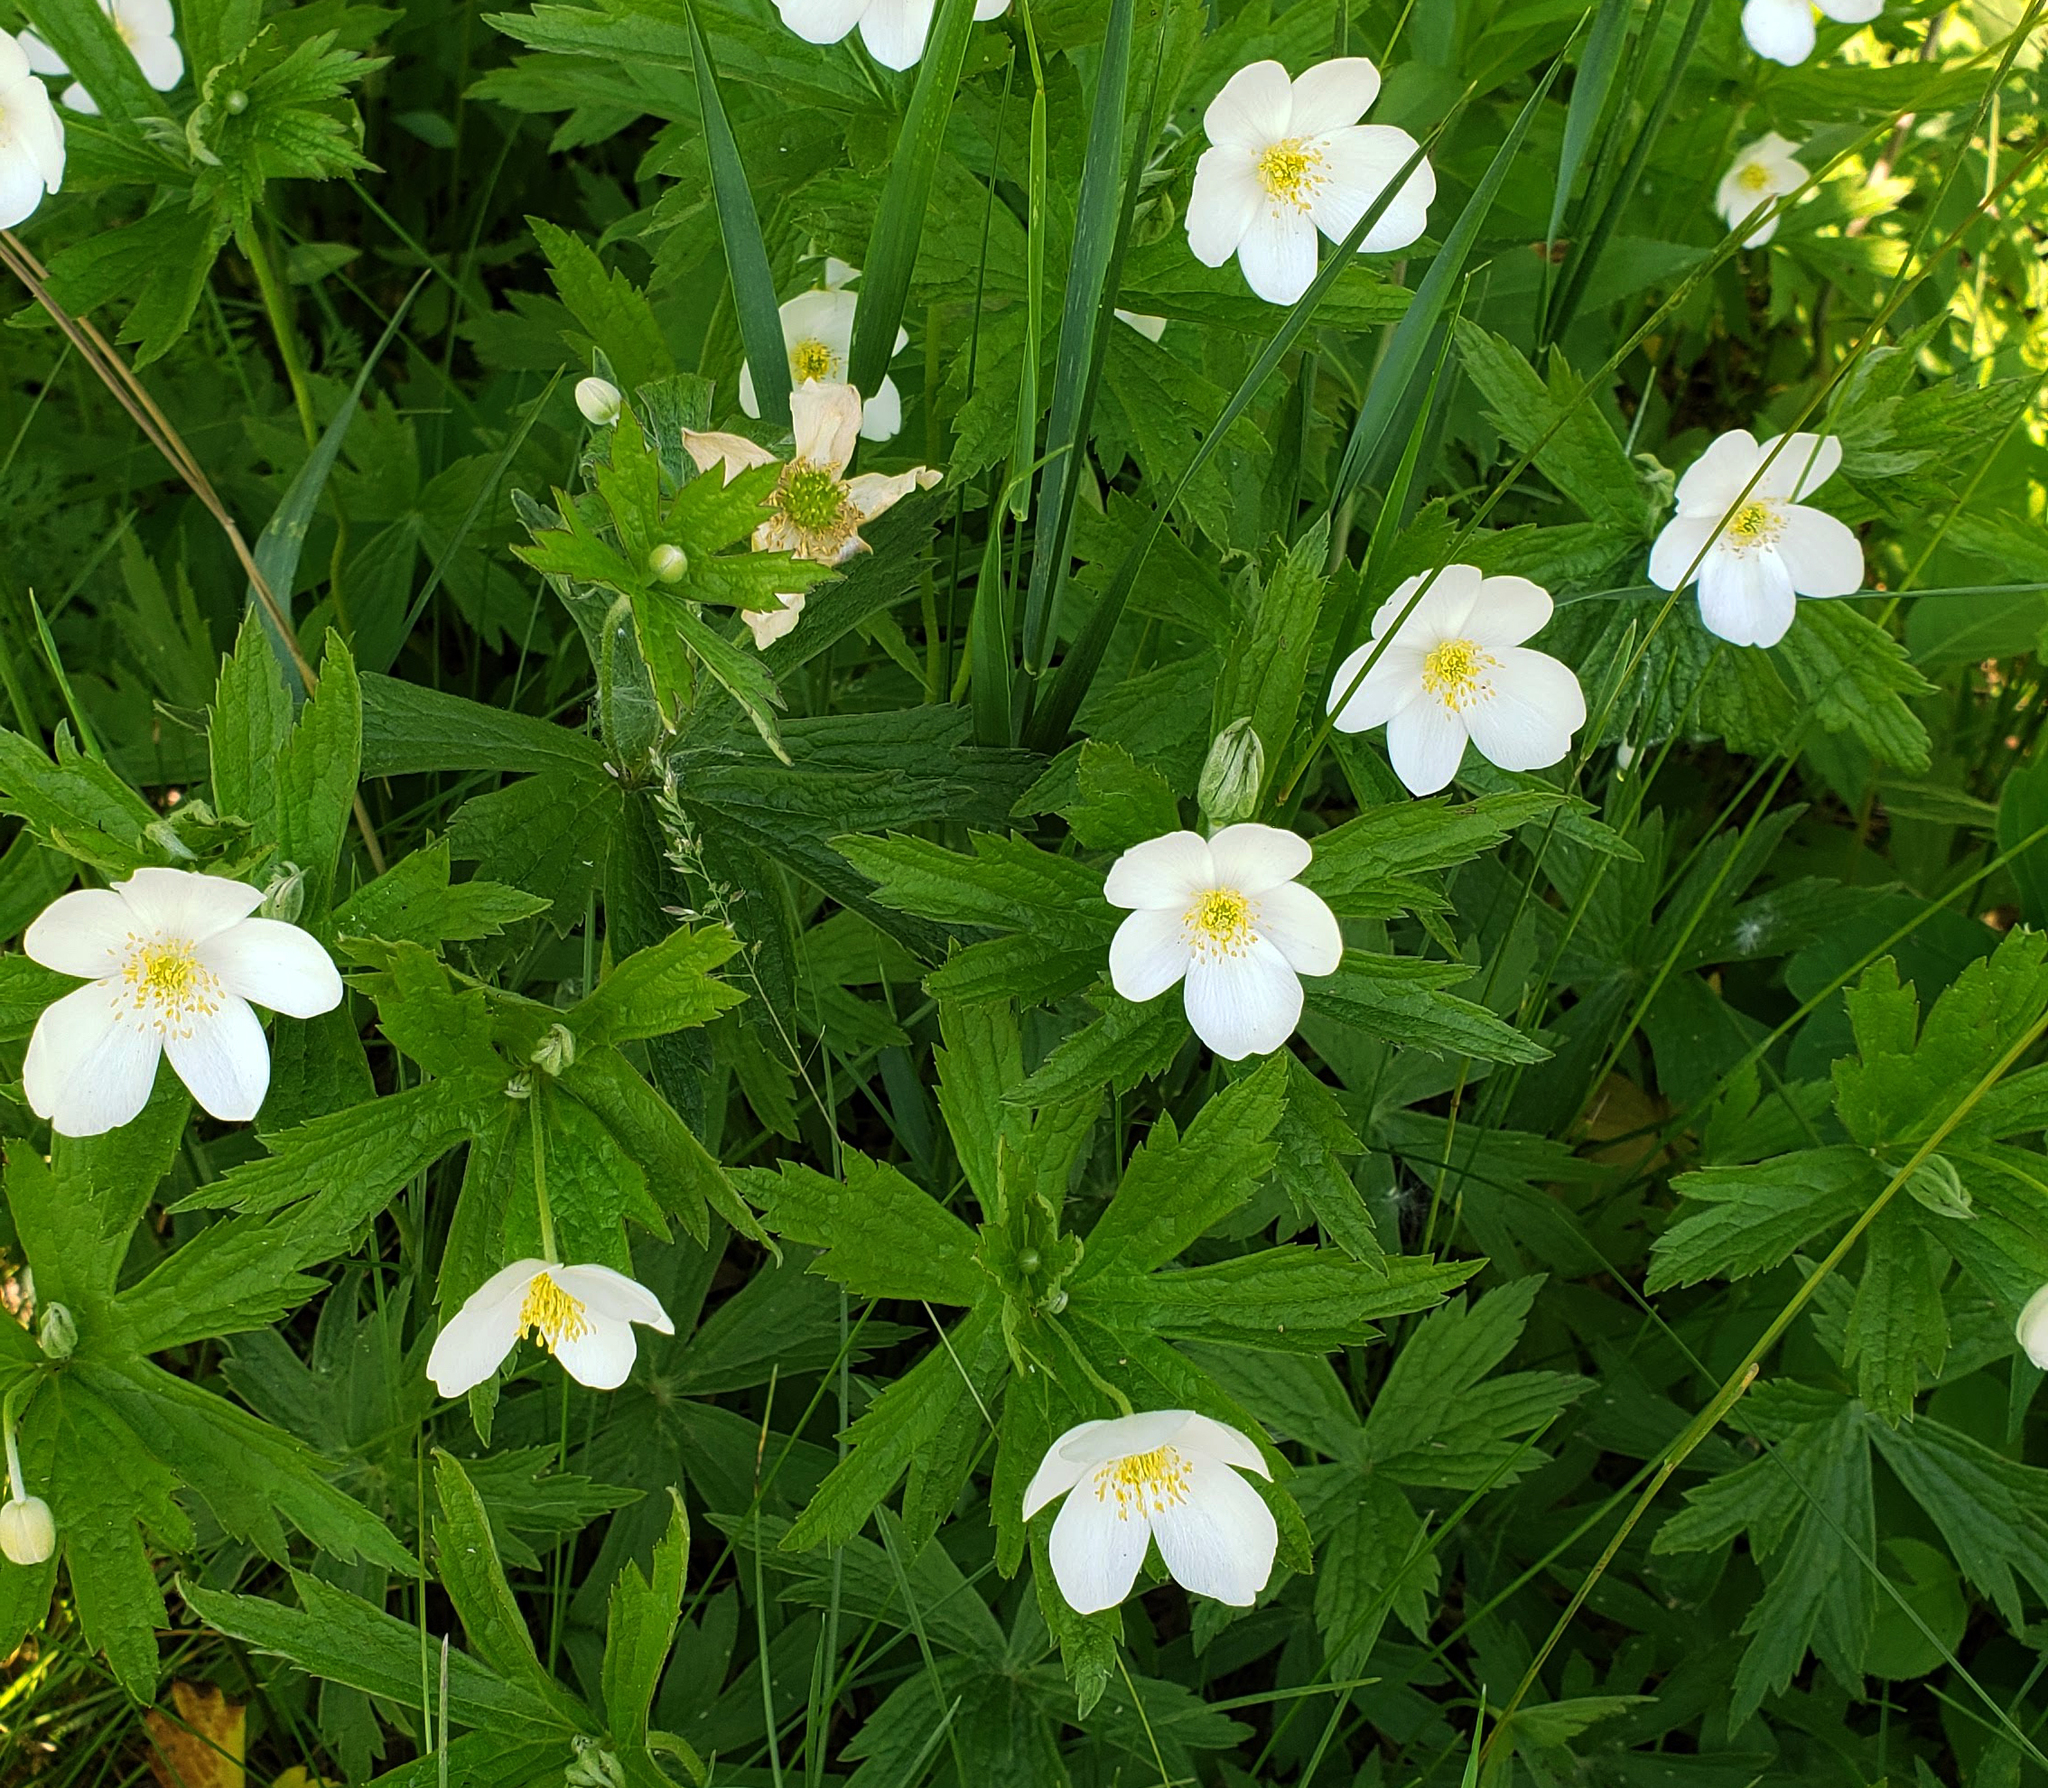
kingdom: Plantae
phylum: Tracheophyta
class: Magnoliopsida
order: Ranunculales
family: Ranunculaceae
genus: Anemonastrum
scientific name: Anemonastrum canadense
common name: Canada anemone
